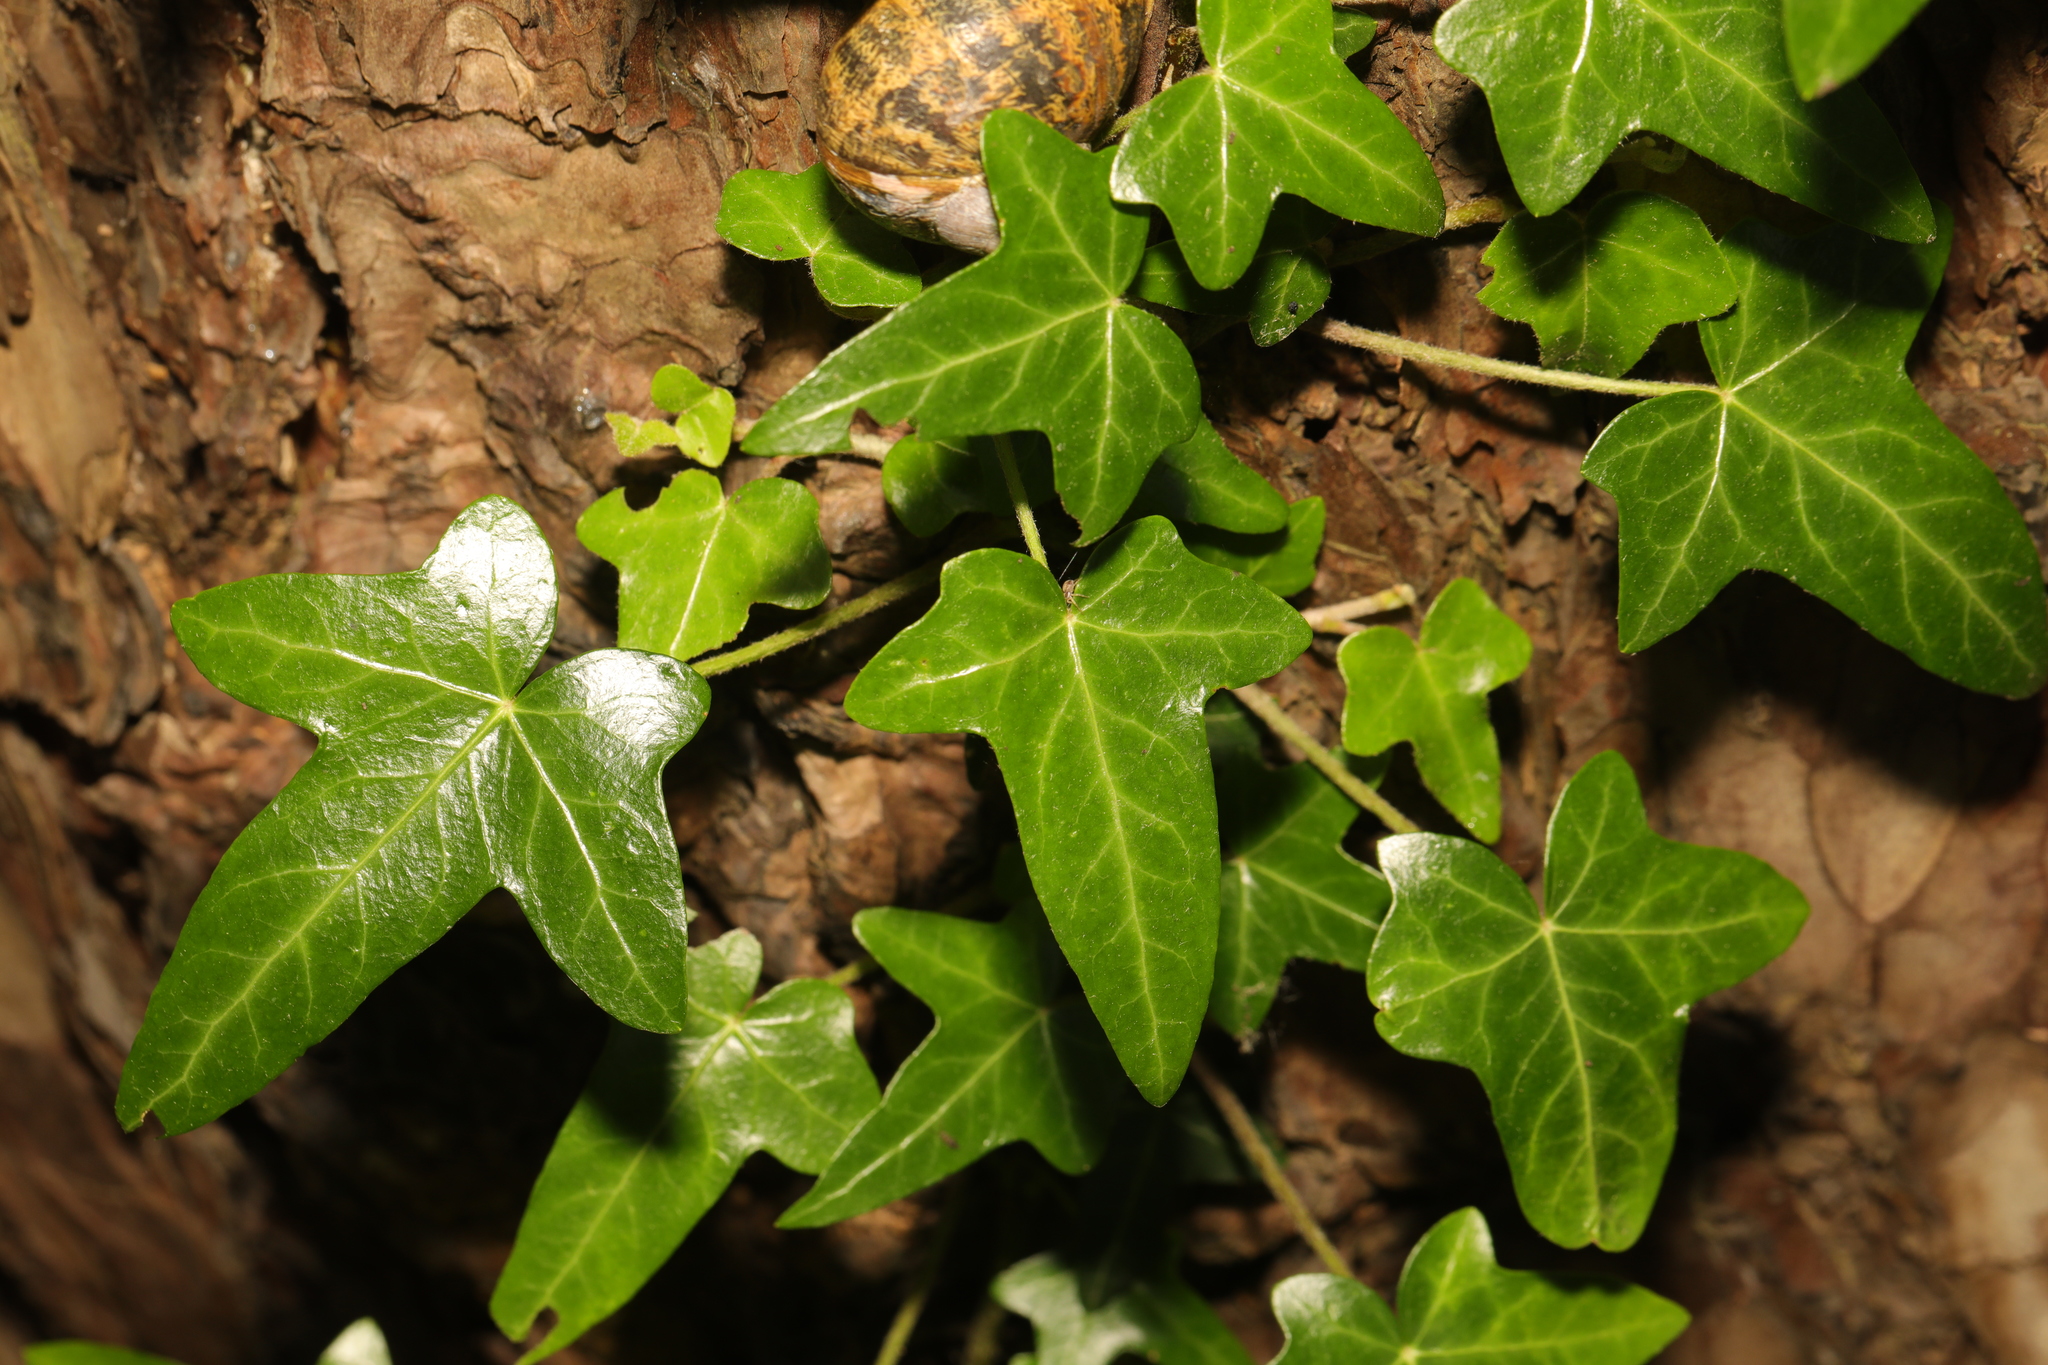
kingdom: Plantae
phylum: Tracheophyta
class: Magnoliopsida
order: Apiales
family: Araliaceae
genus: Hedera
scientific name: Hedera helix
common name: Ivy
